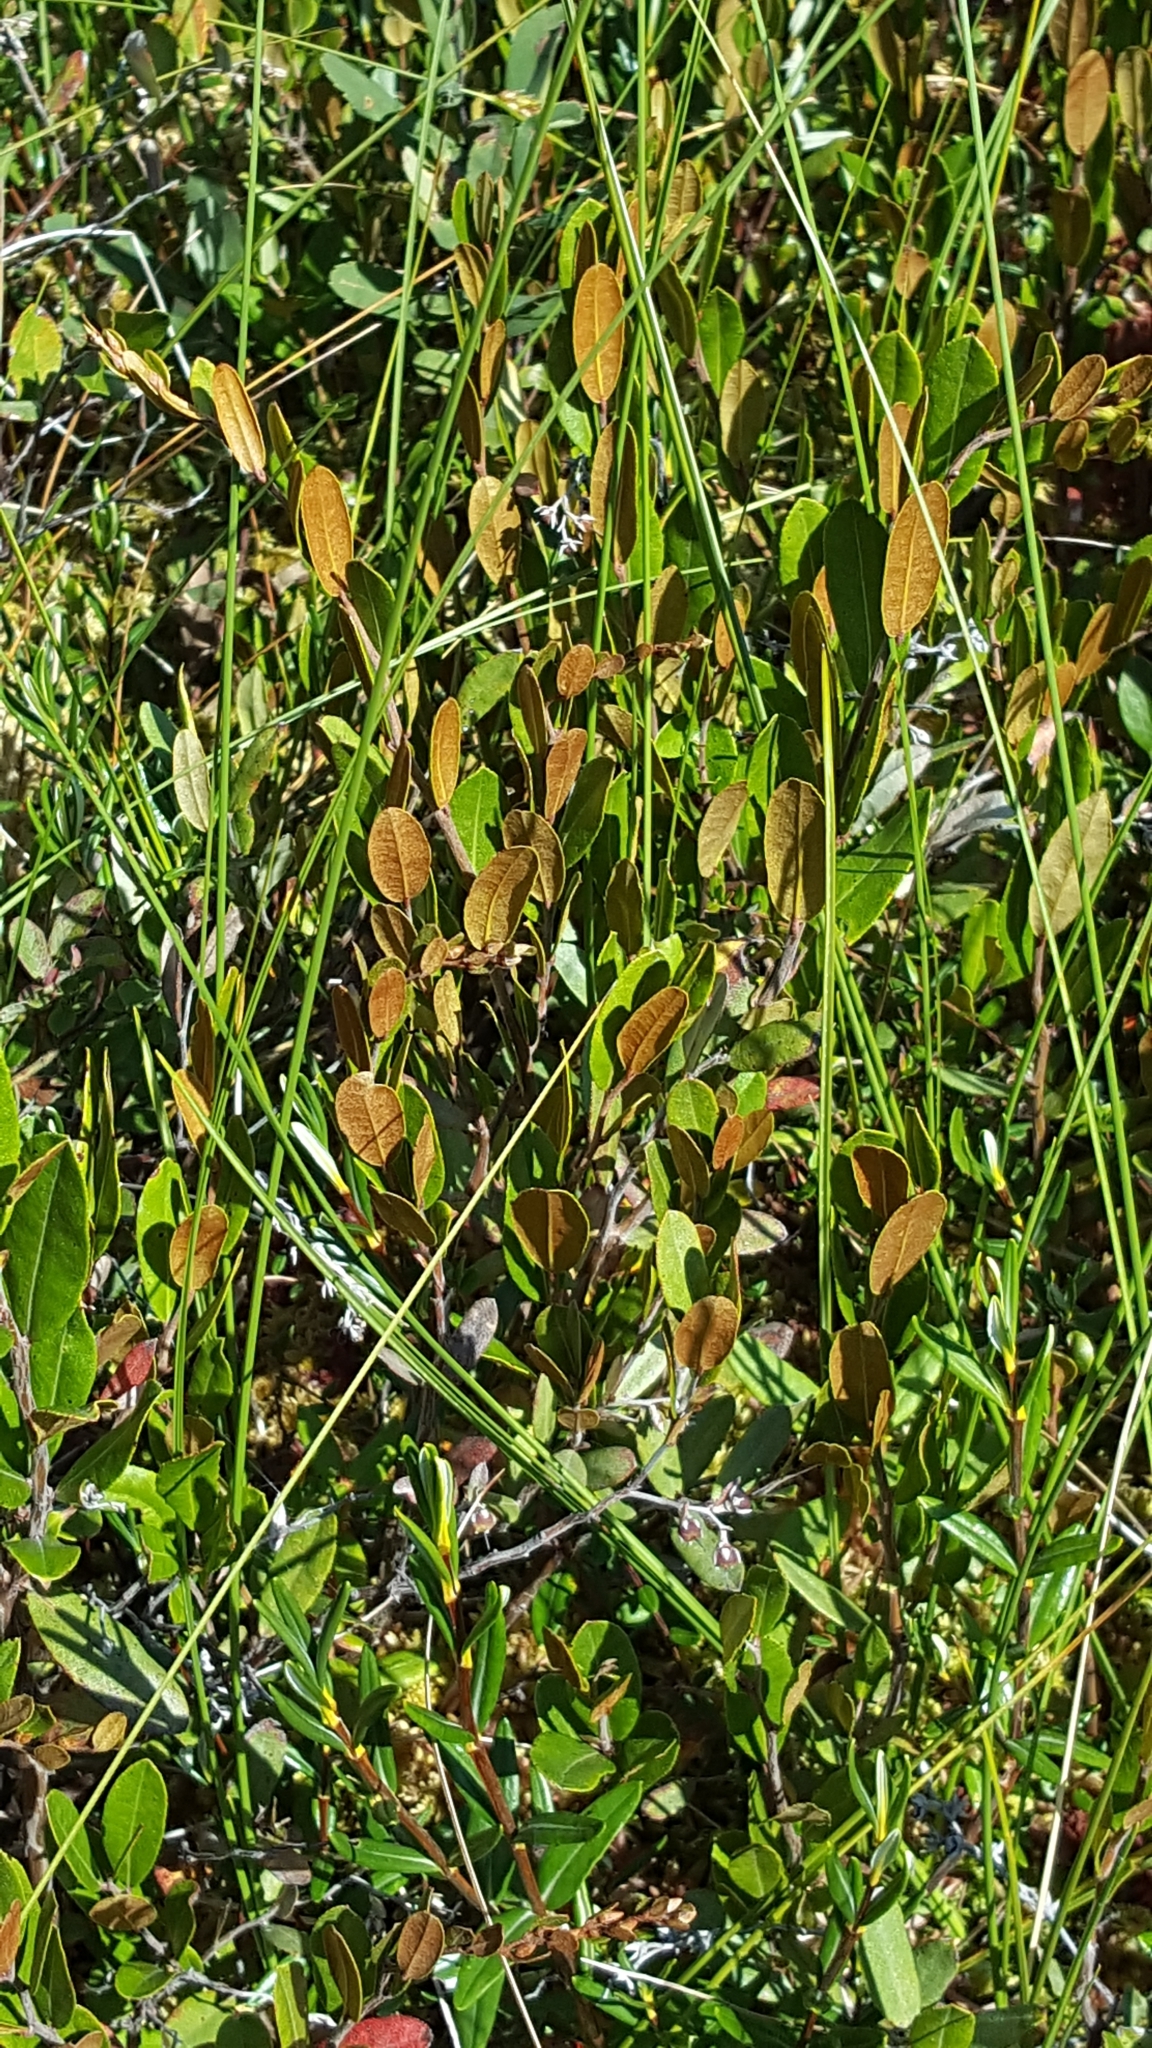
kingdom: Plantae
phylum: Tracheophyta
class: Magnoliopsida
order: Ericales
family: Ericaceae
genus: Chamaedaphne
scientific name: Chamaedaphne calyculata
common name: Leatherleaf
